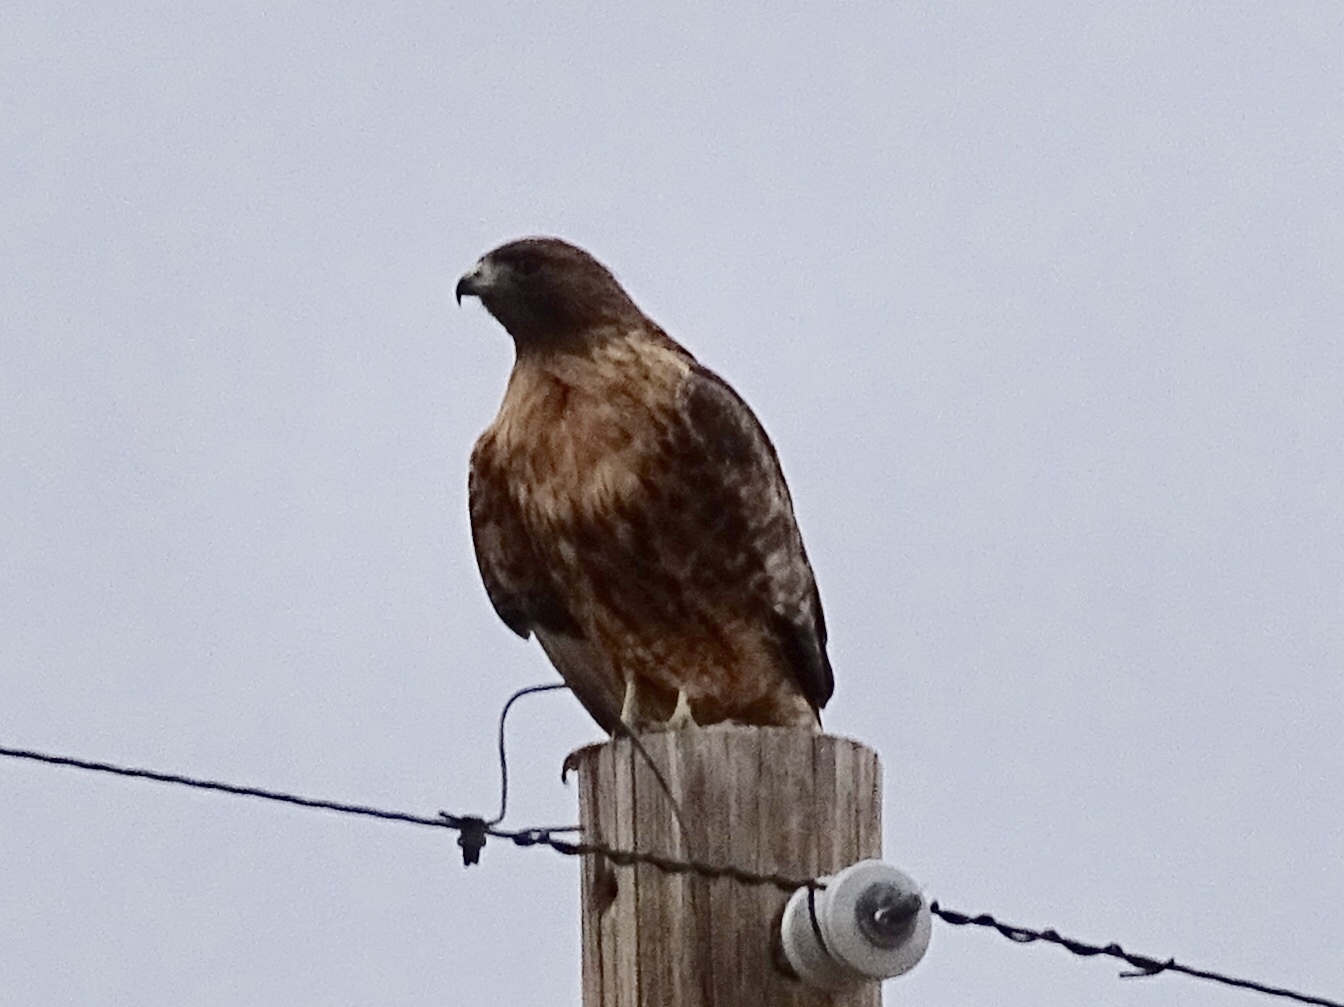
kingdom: Animalia
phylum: Chordata
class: Aves
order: Accipitriformes
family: Accipitridae
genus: Buteo
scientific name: Buteo jamaicensis
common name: Red-tailed hawk
